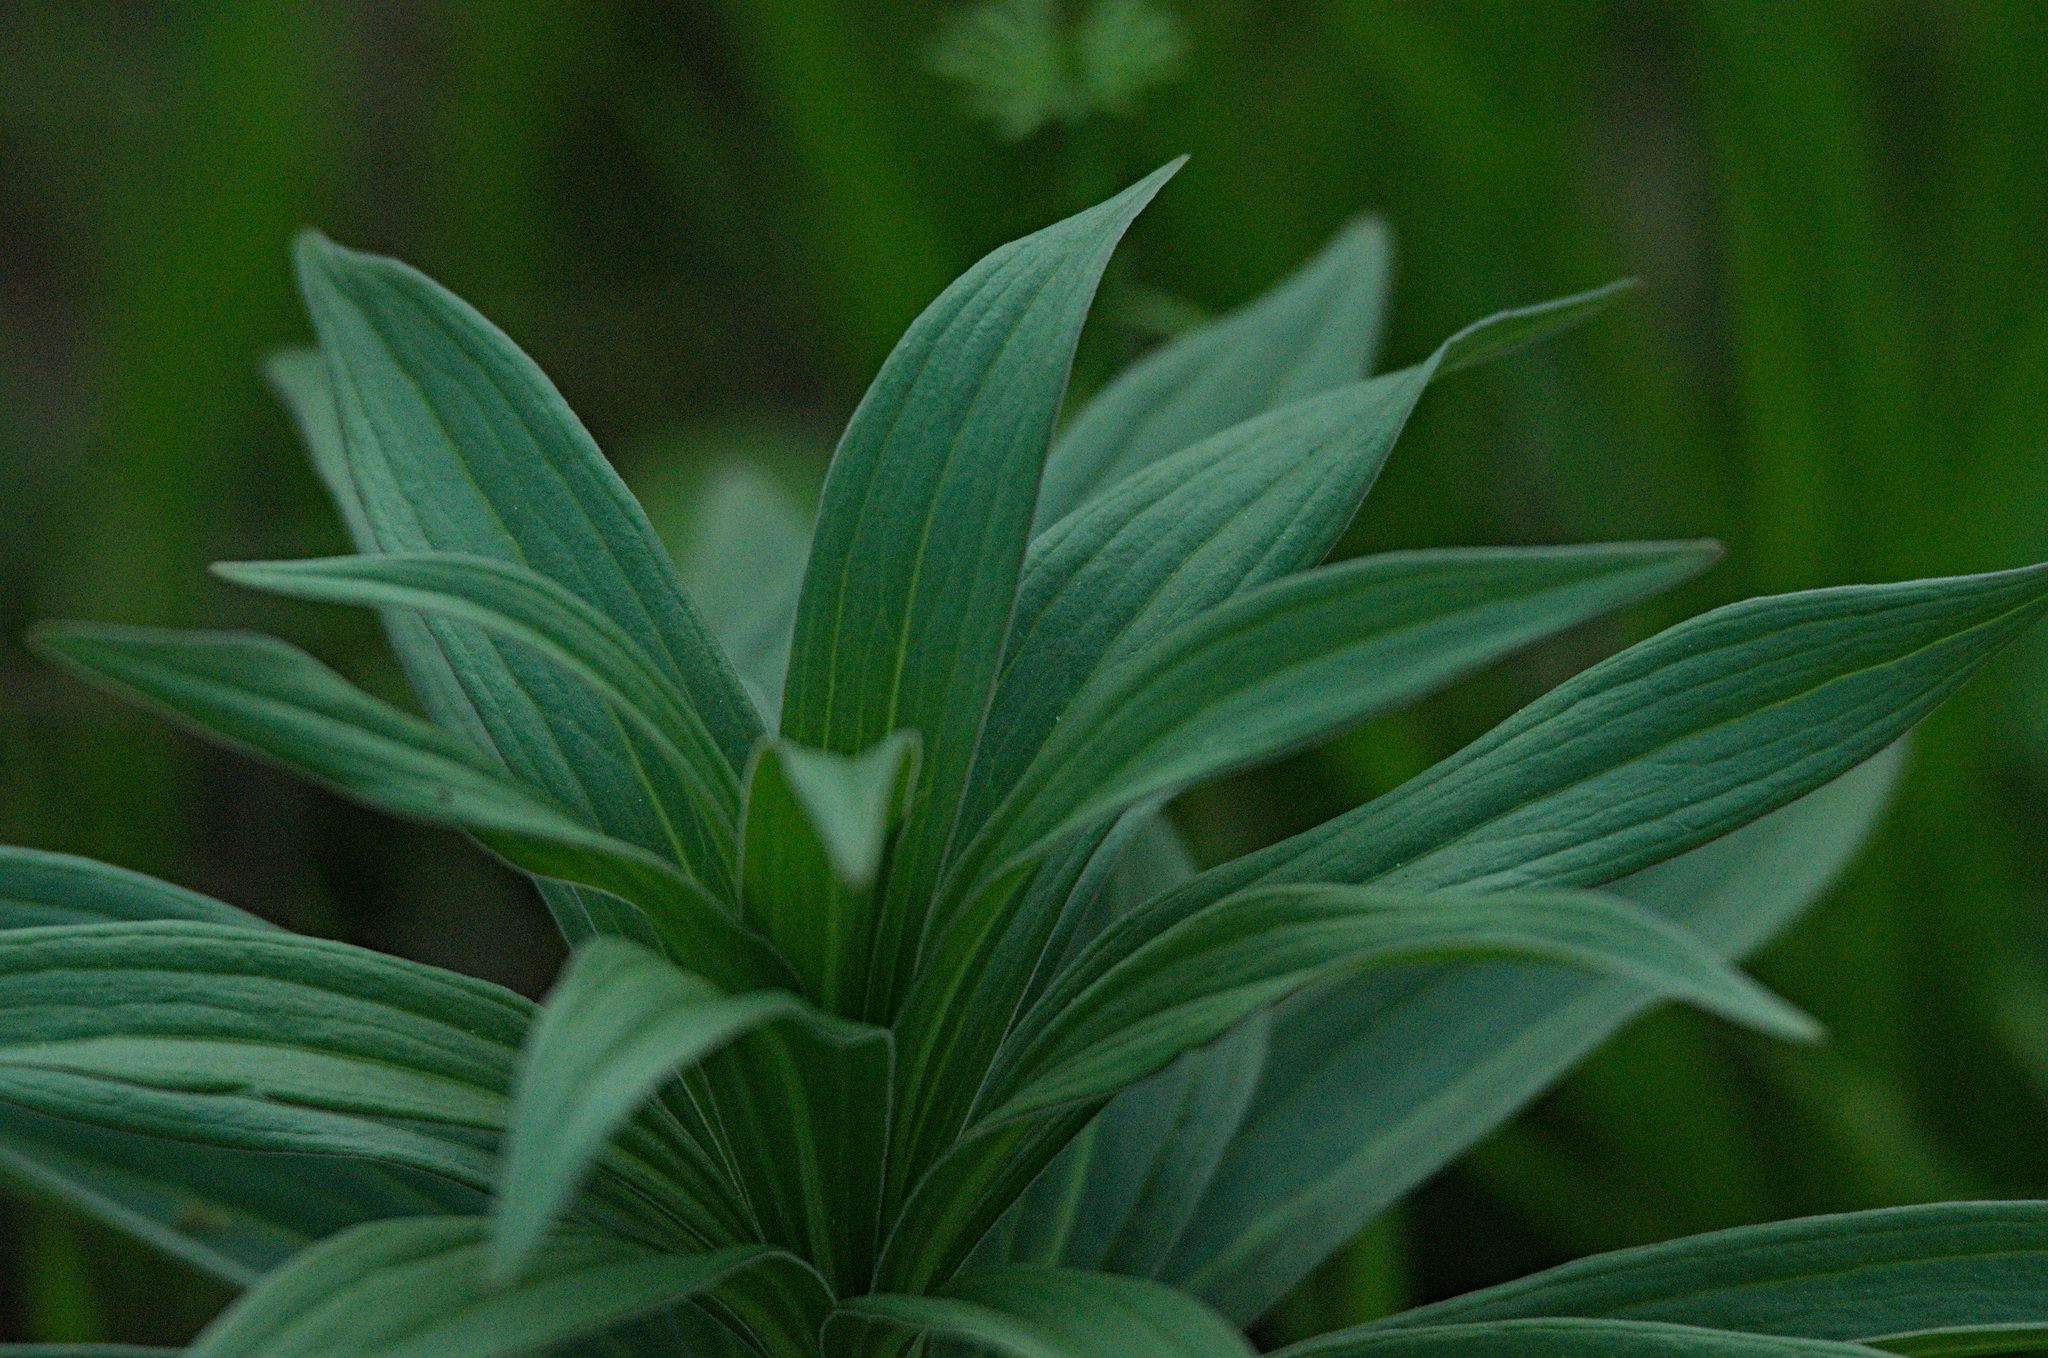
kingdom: Plantae
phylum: Tracheophyta
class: Liliopsida
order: Liliales
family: Liliaceae
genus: Lilium
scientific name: Lilium martagon
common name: Martagon lily
